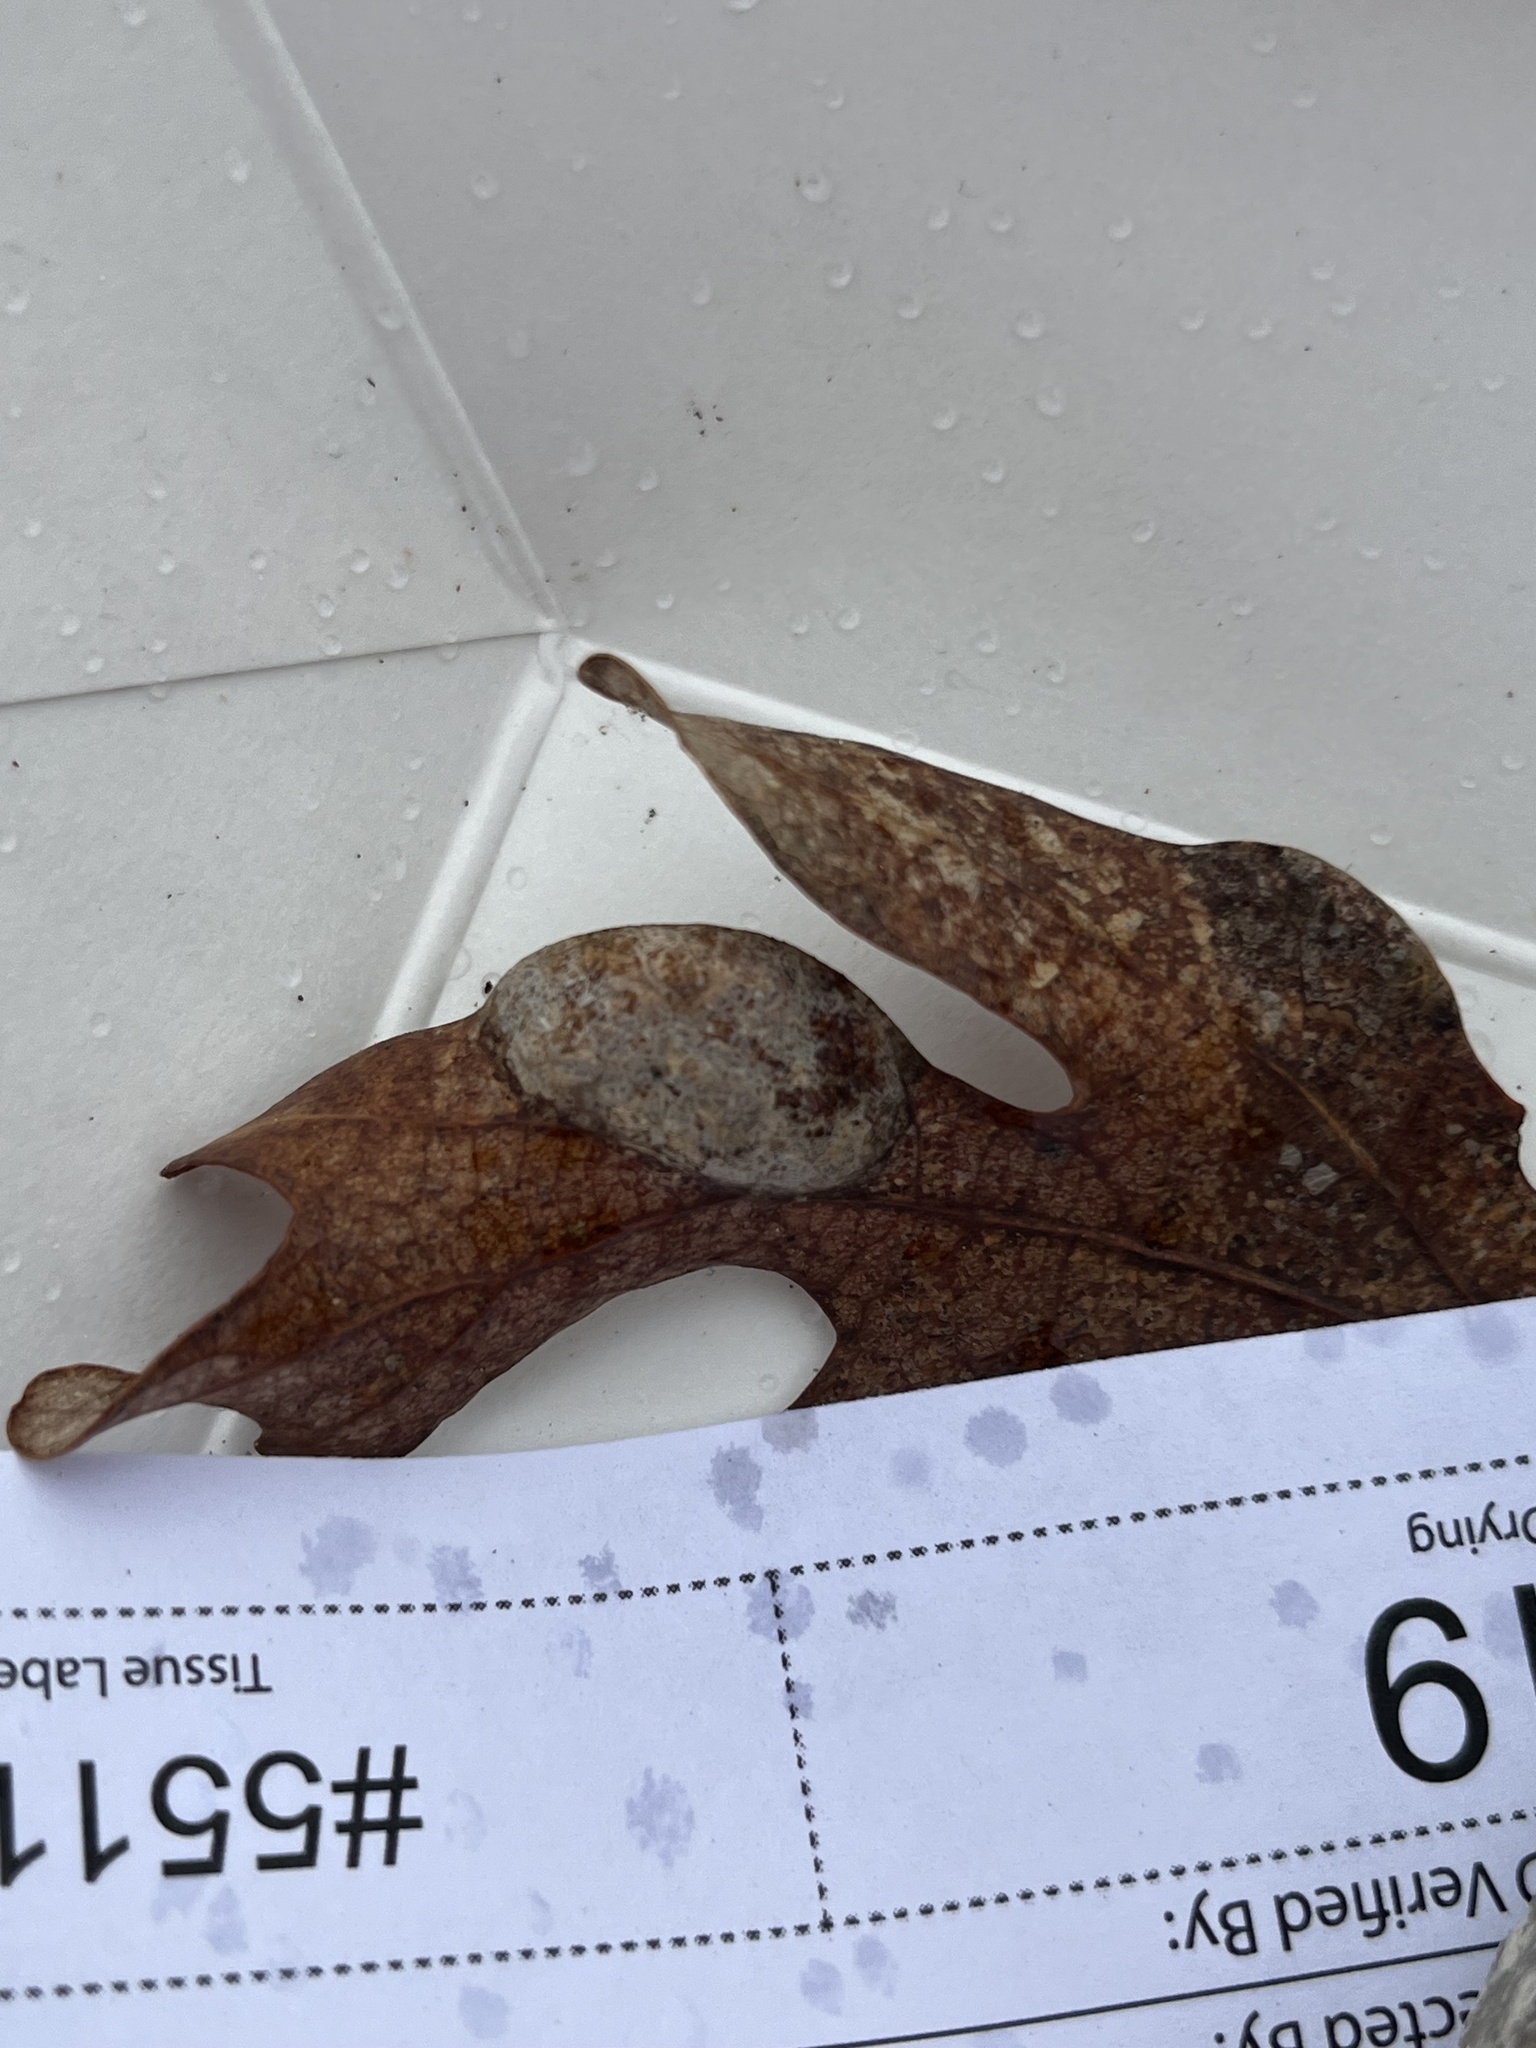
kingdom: Fungi
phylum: Ascomycota
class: Taphrinomycetes
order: Taphrinales
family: Taphrinaceae
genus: Taphrina
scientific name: Taphrina caerulescens
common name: Oak leaf blister
